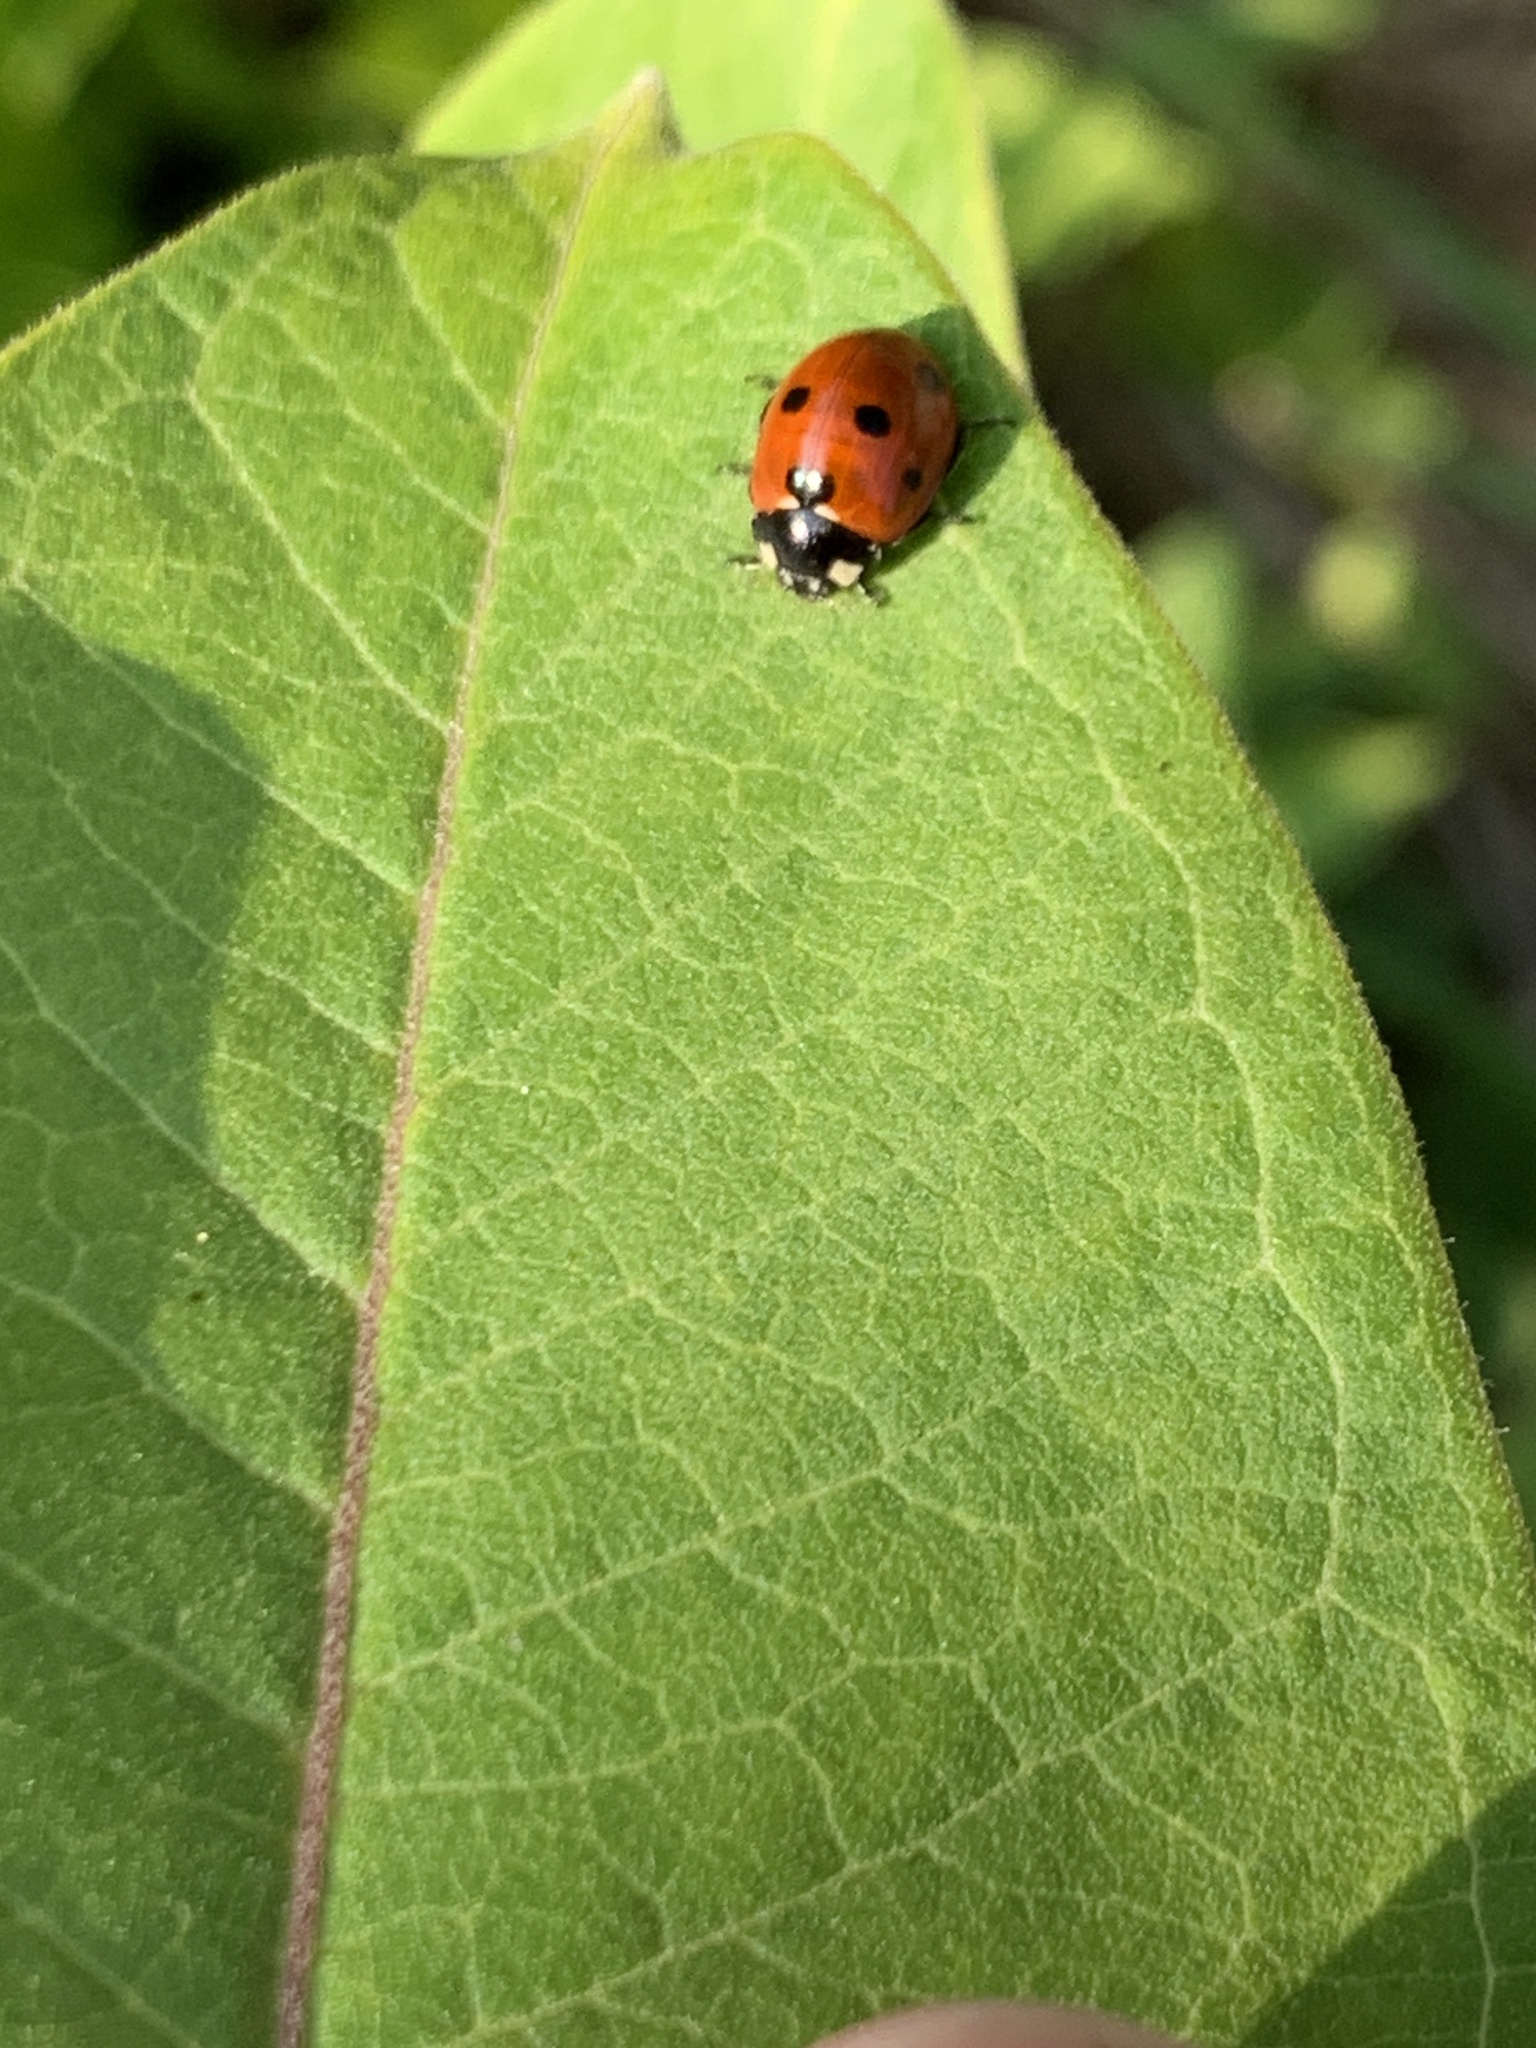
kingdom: Animalia
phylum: Arthropoda
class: Insecta
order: Coleoptera
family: Coccinellidae
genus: Coccinella
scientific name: Coccinella septempunctata
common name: Sevenspotted lady beetle
